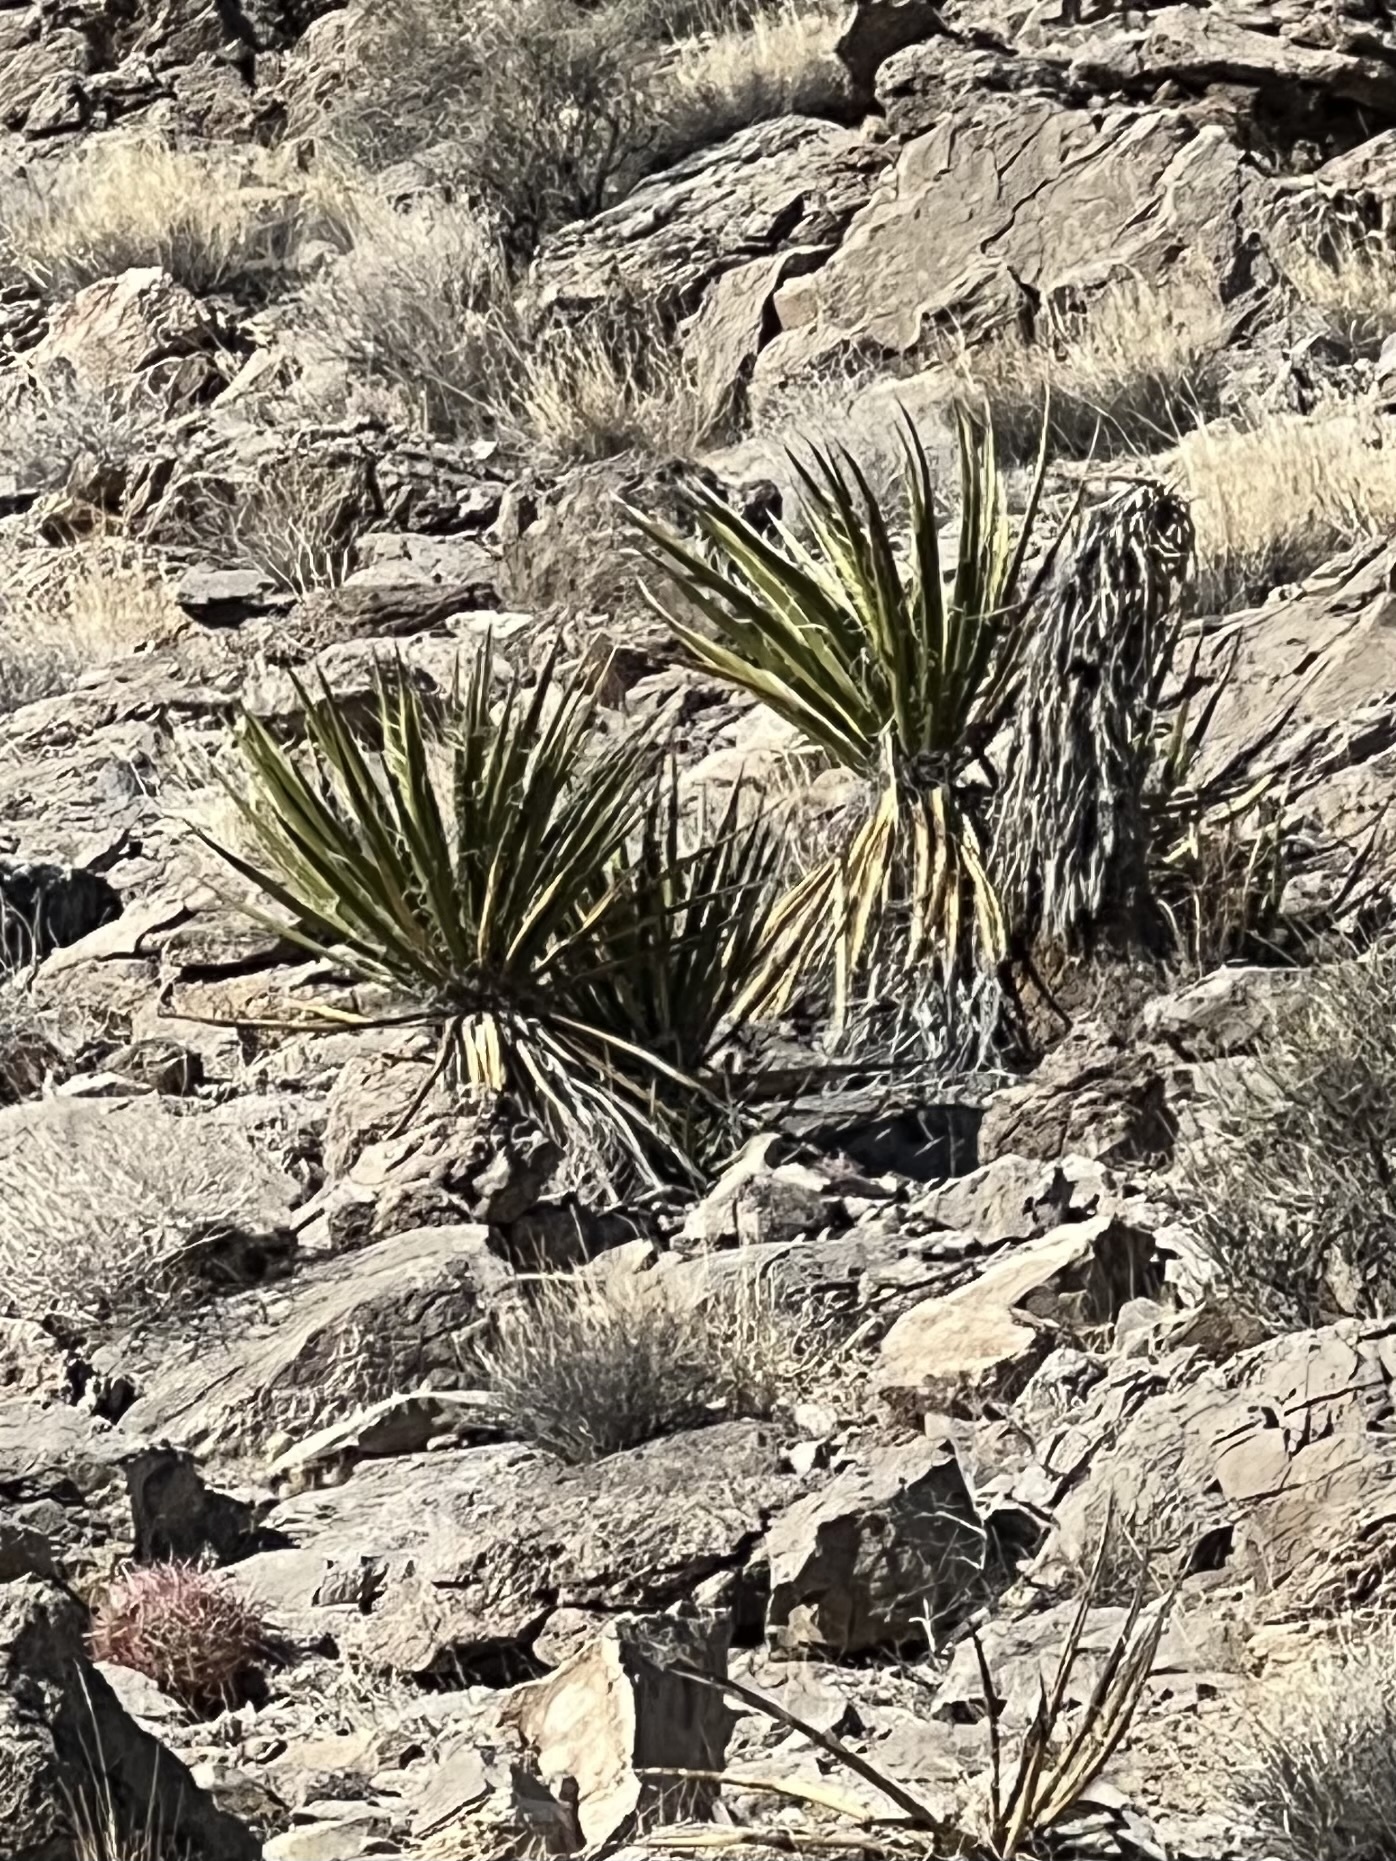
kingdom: Plantae
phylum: Tracheophyta
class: Liliopsida
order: Asparagales
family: Asparagaceae
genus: Yucca
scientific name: Yucca schidigera
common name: Mojave yucca
